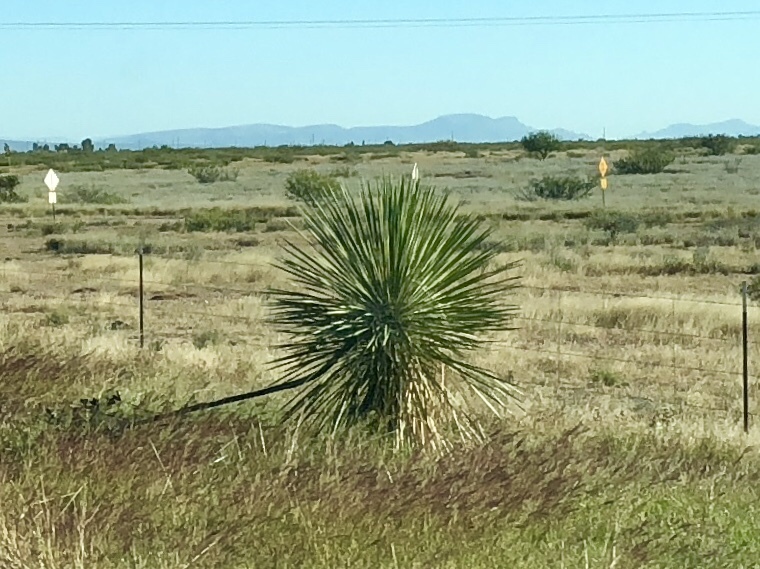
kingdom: Plantae
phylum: Tracheophyta
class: Liliopsida
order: Asparagales
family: Asparagaceae
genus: Yucca
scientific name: Yucca elata
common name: Palmella
